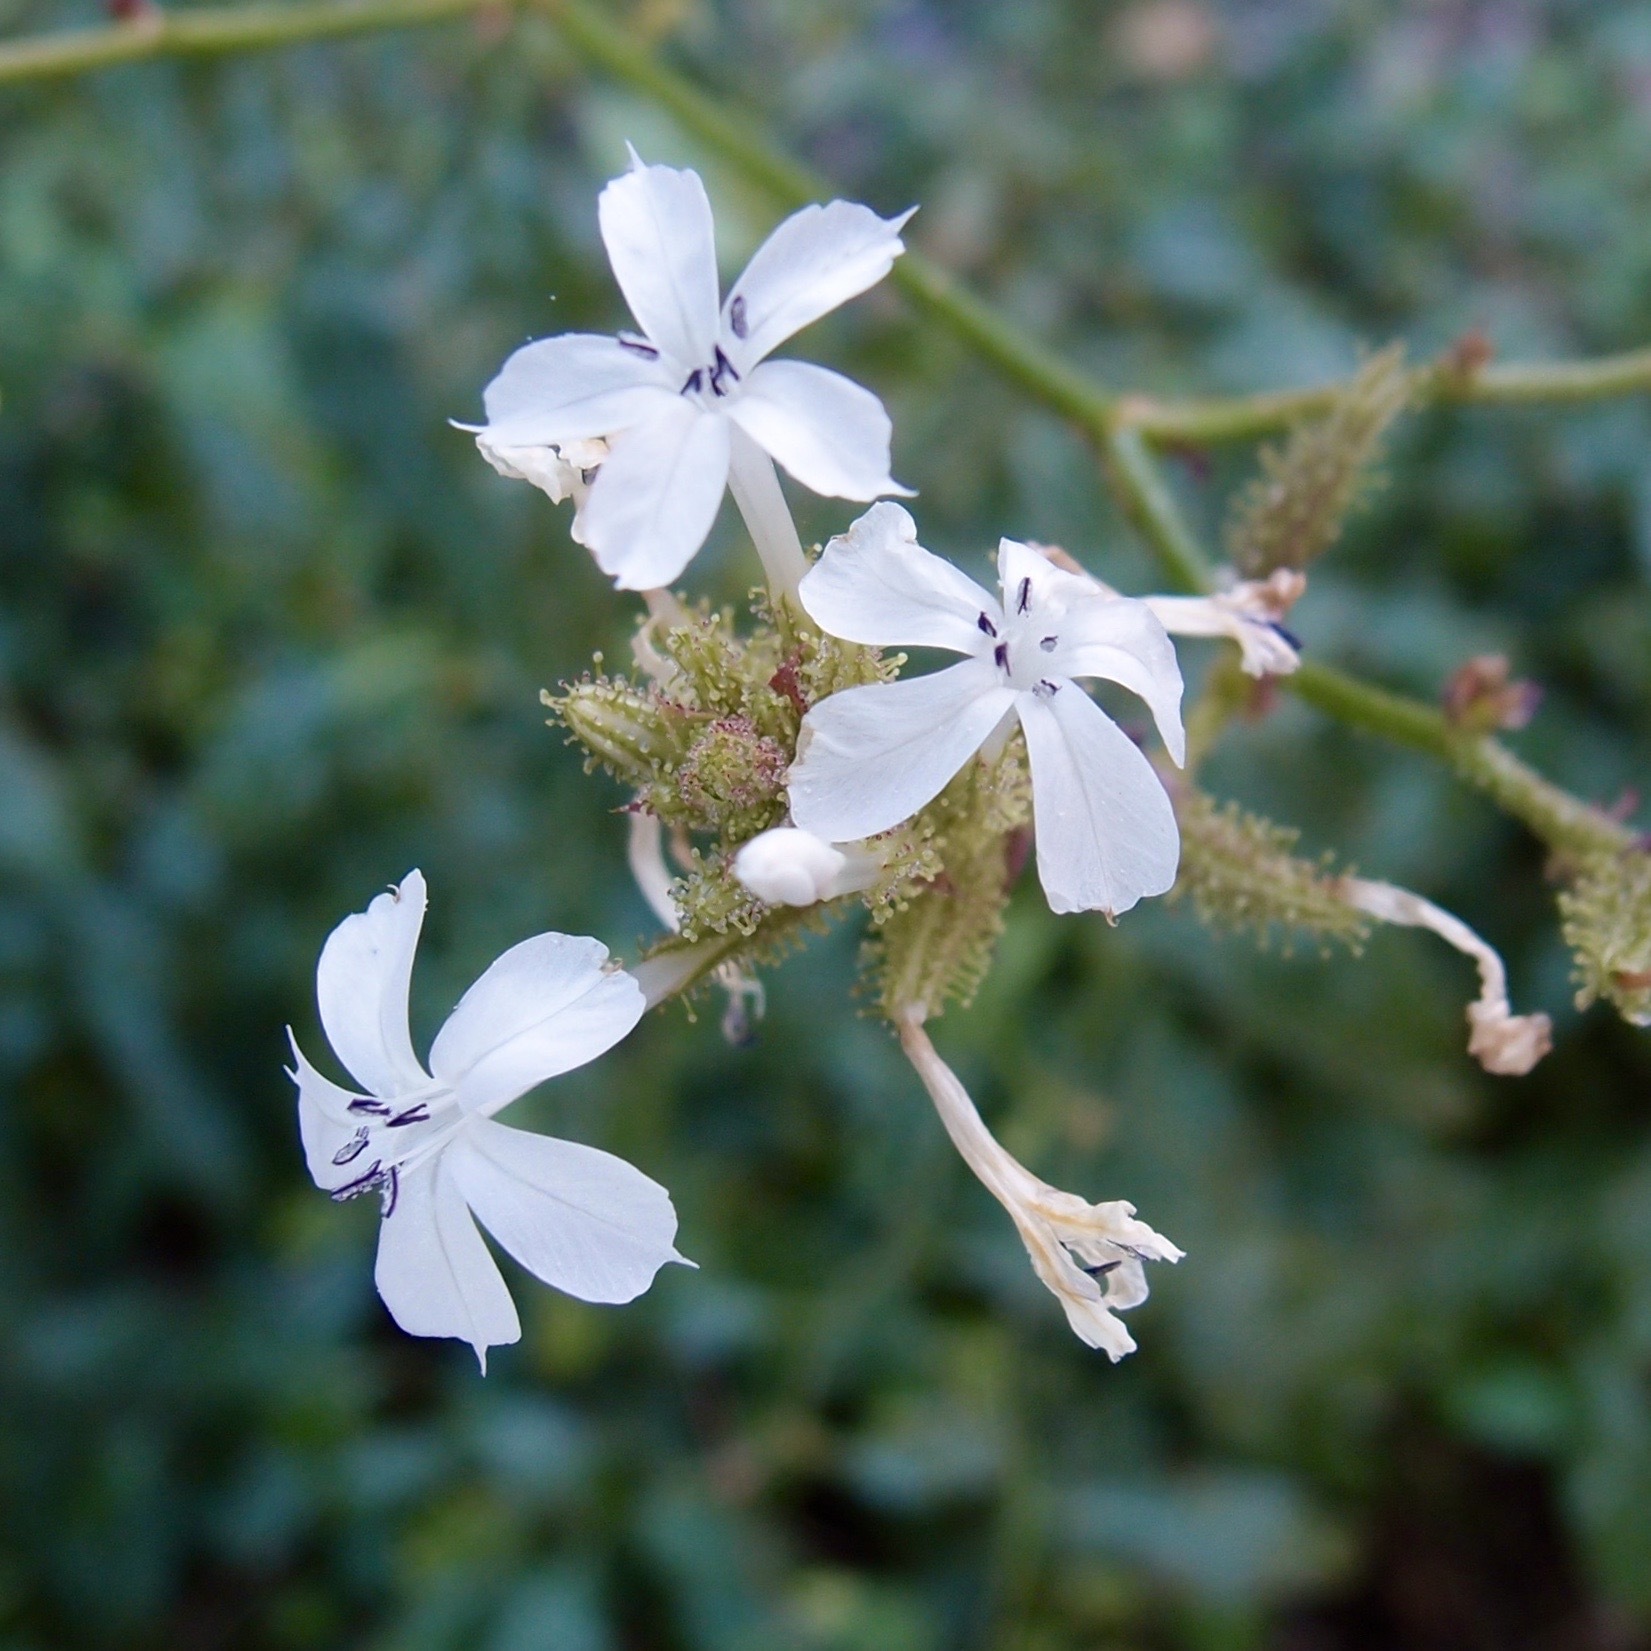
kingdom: Plantae
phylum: Tracheophyta
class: Magnoliopsida
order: Caryophyllales
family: Plumbaginaceae
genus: Plumbago
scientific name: Plumbago zeylanica
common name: Doctorbush
